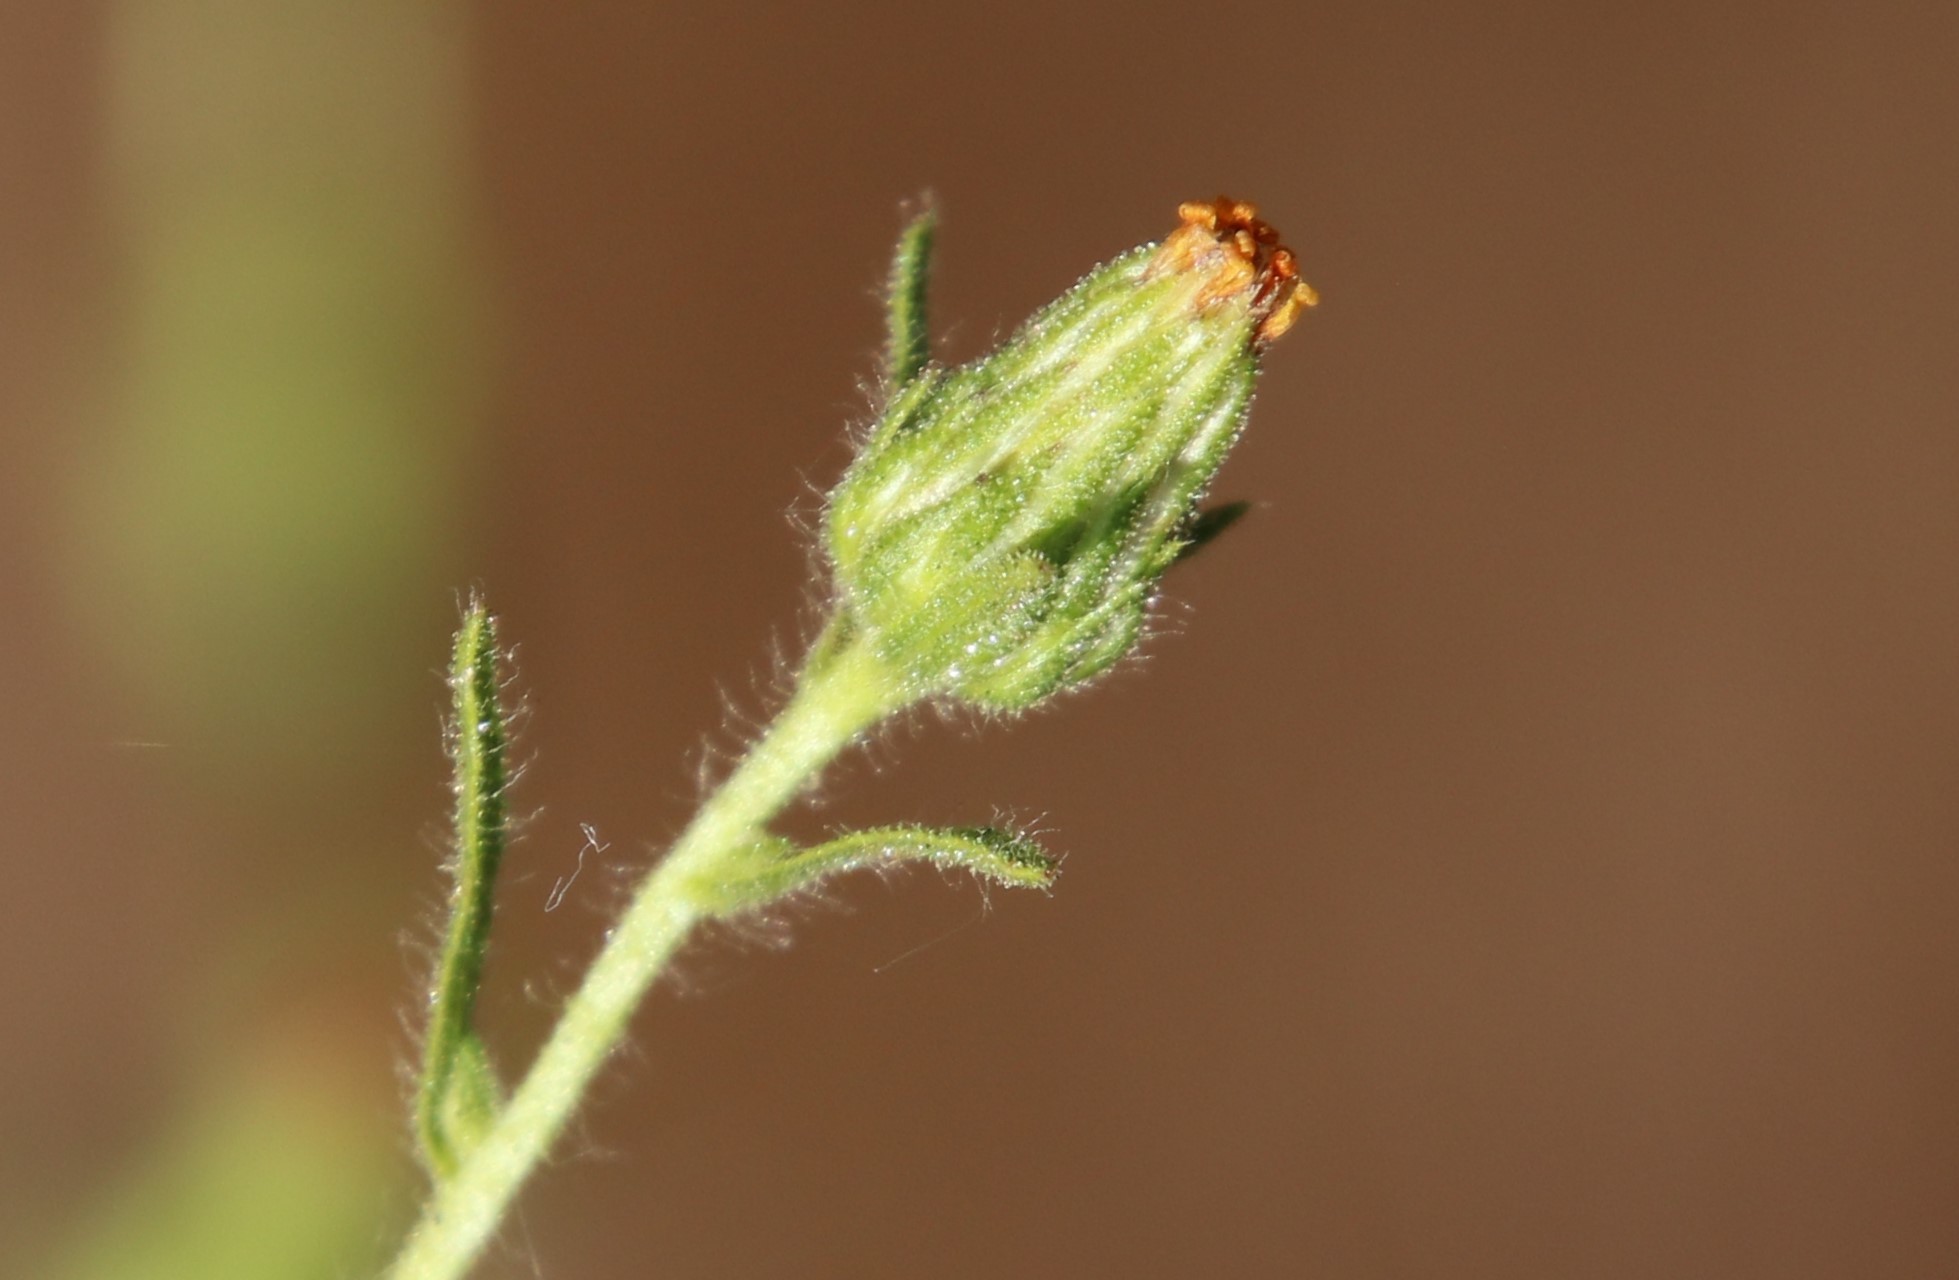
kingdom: Plantae
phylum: Tracheophyta
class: Magnoliopsida
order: Asterales
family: Asteraceae
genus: Dittrichia
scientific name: Dittrichia graveolens
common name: Stinking fleabane
